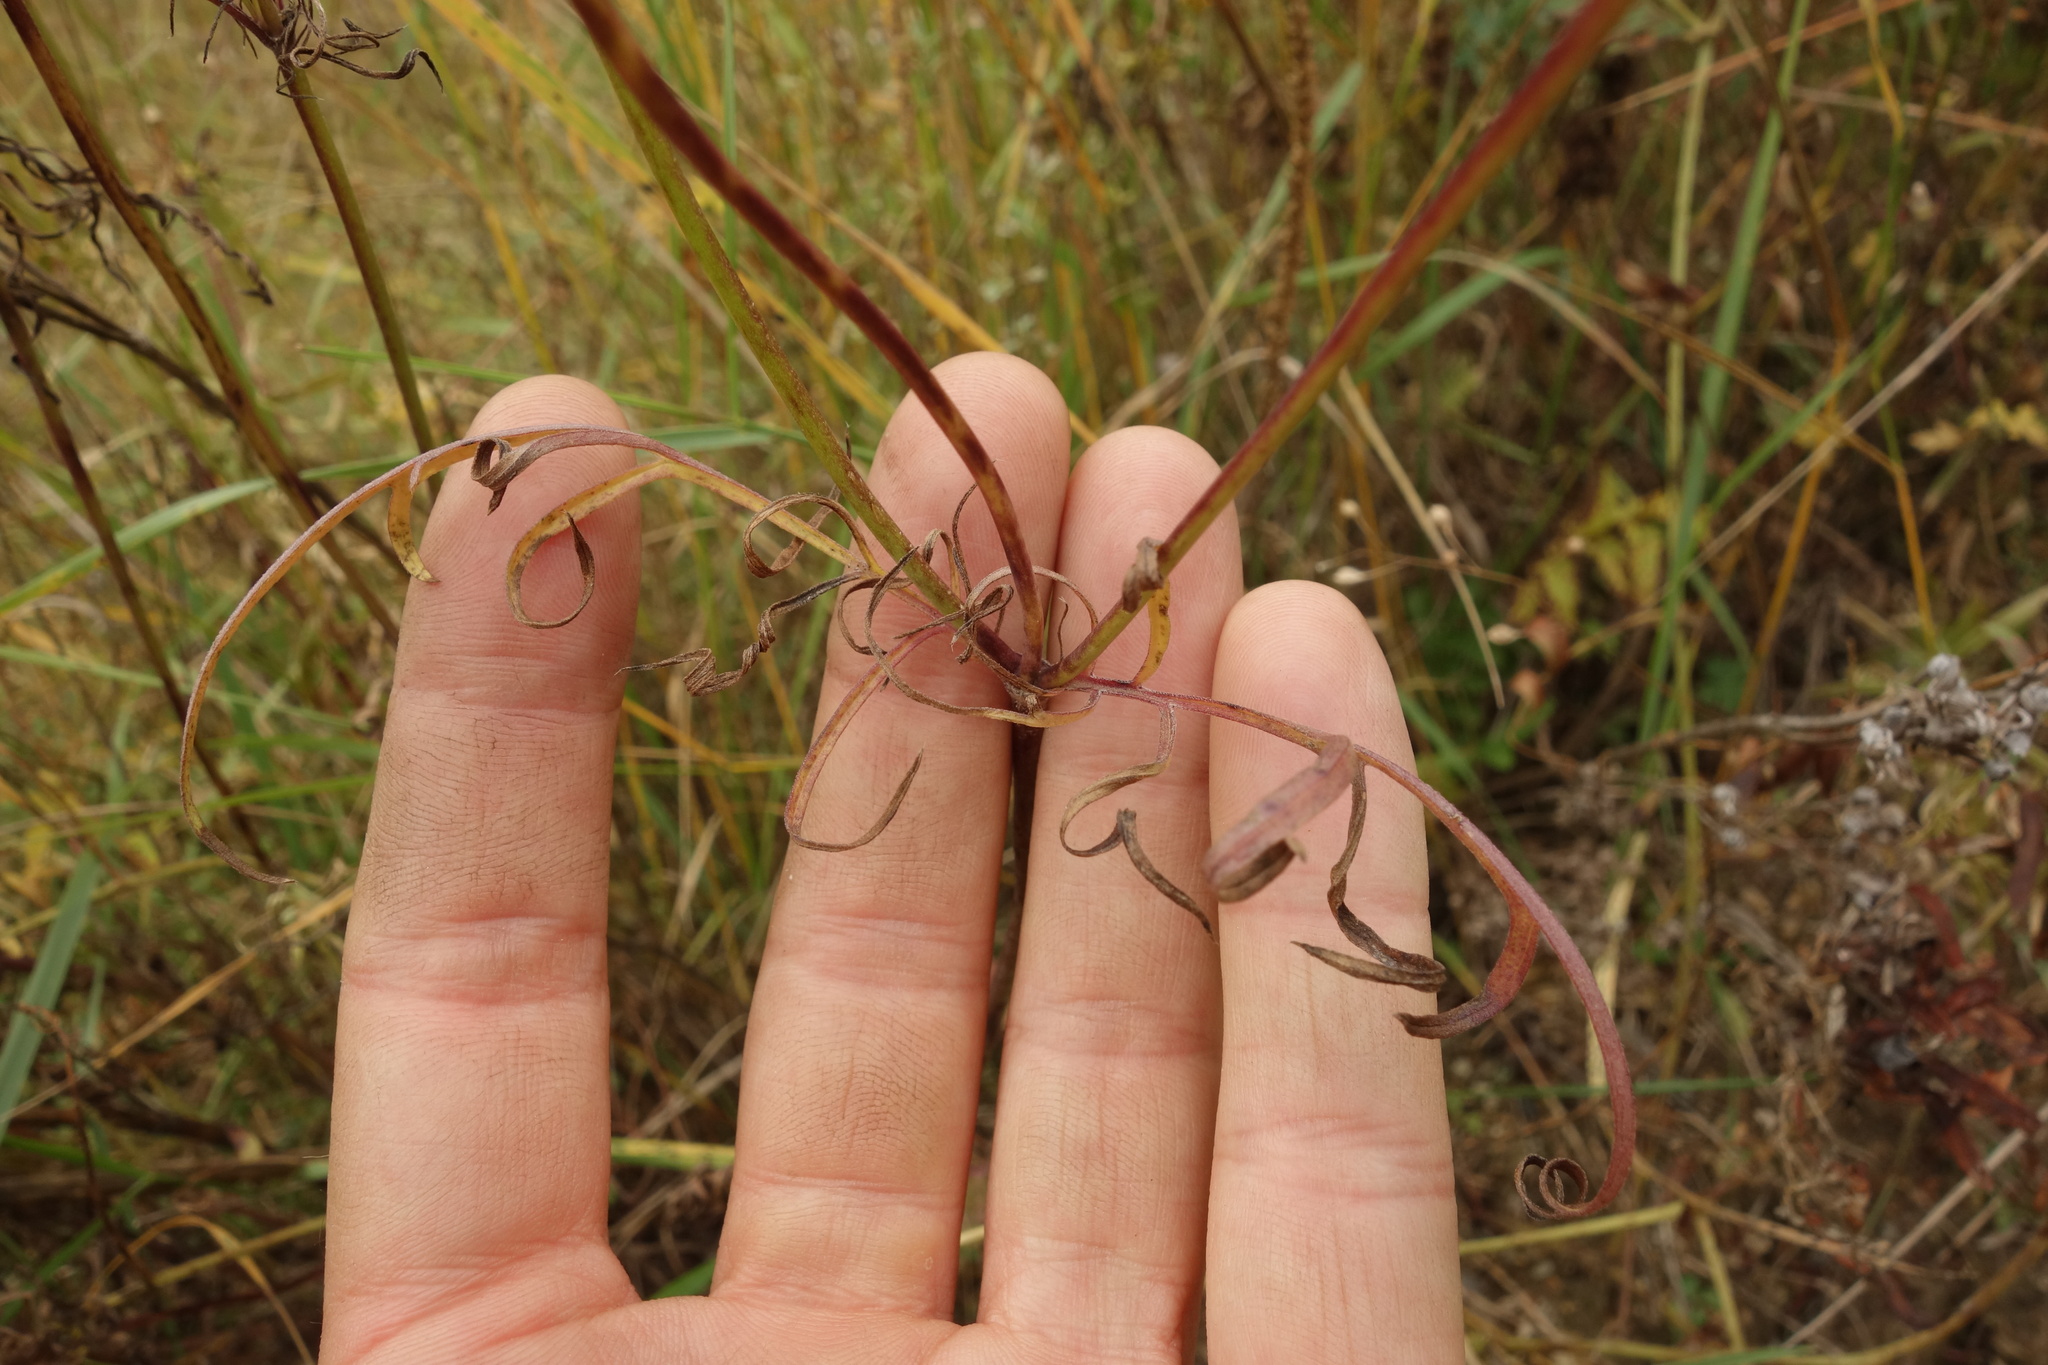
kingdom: Plantae
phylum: Tracheophyta
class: Magnoliopsida
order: Dipsacales
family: Caprifoliaceae
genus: Scabiosa
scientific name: Scabiosa ochroleuca
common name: Cream pincushions
